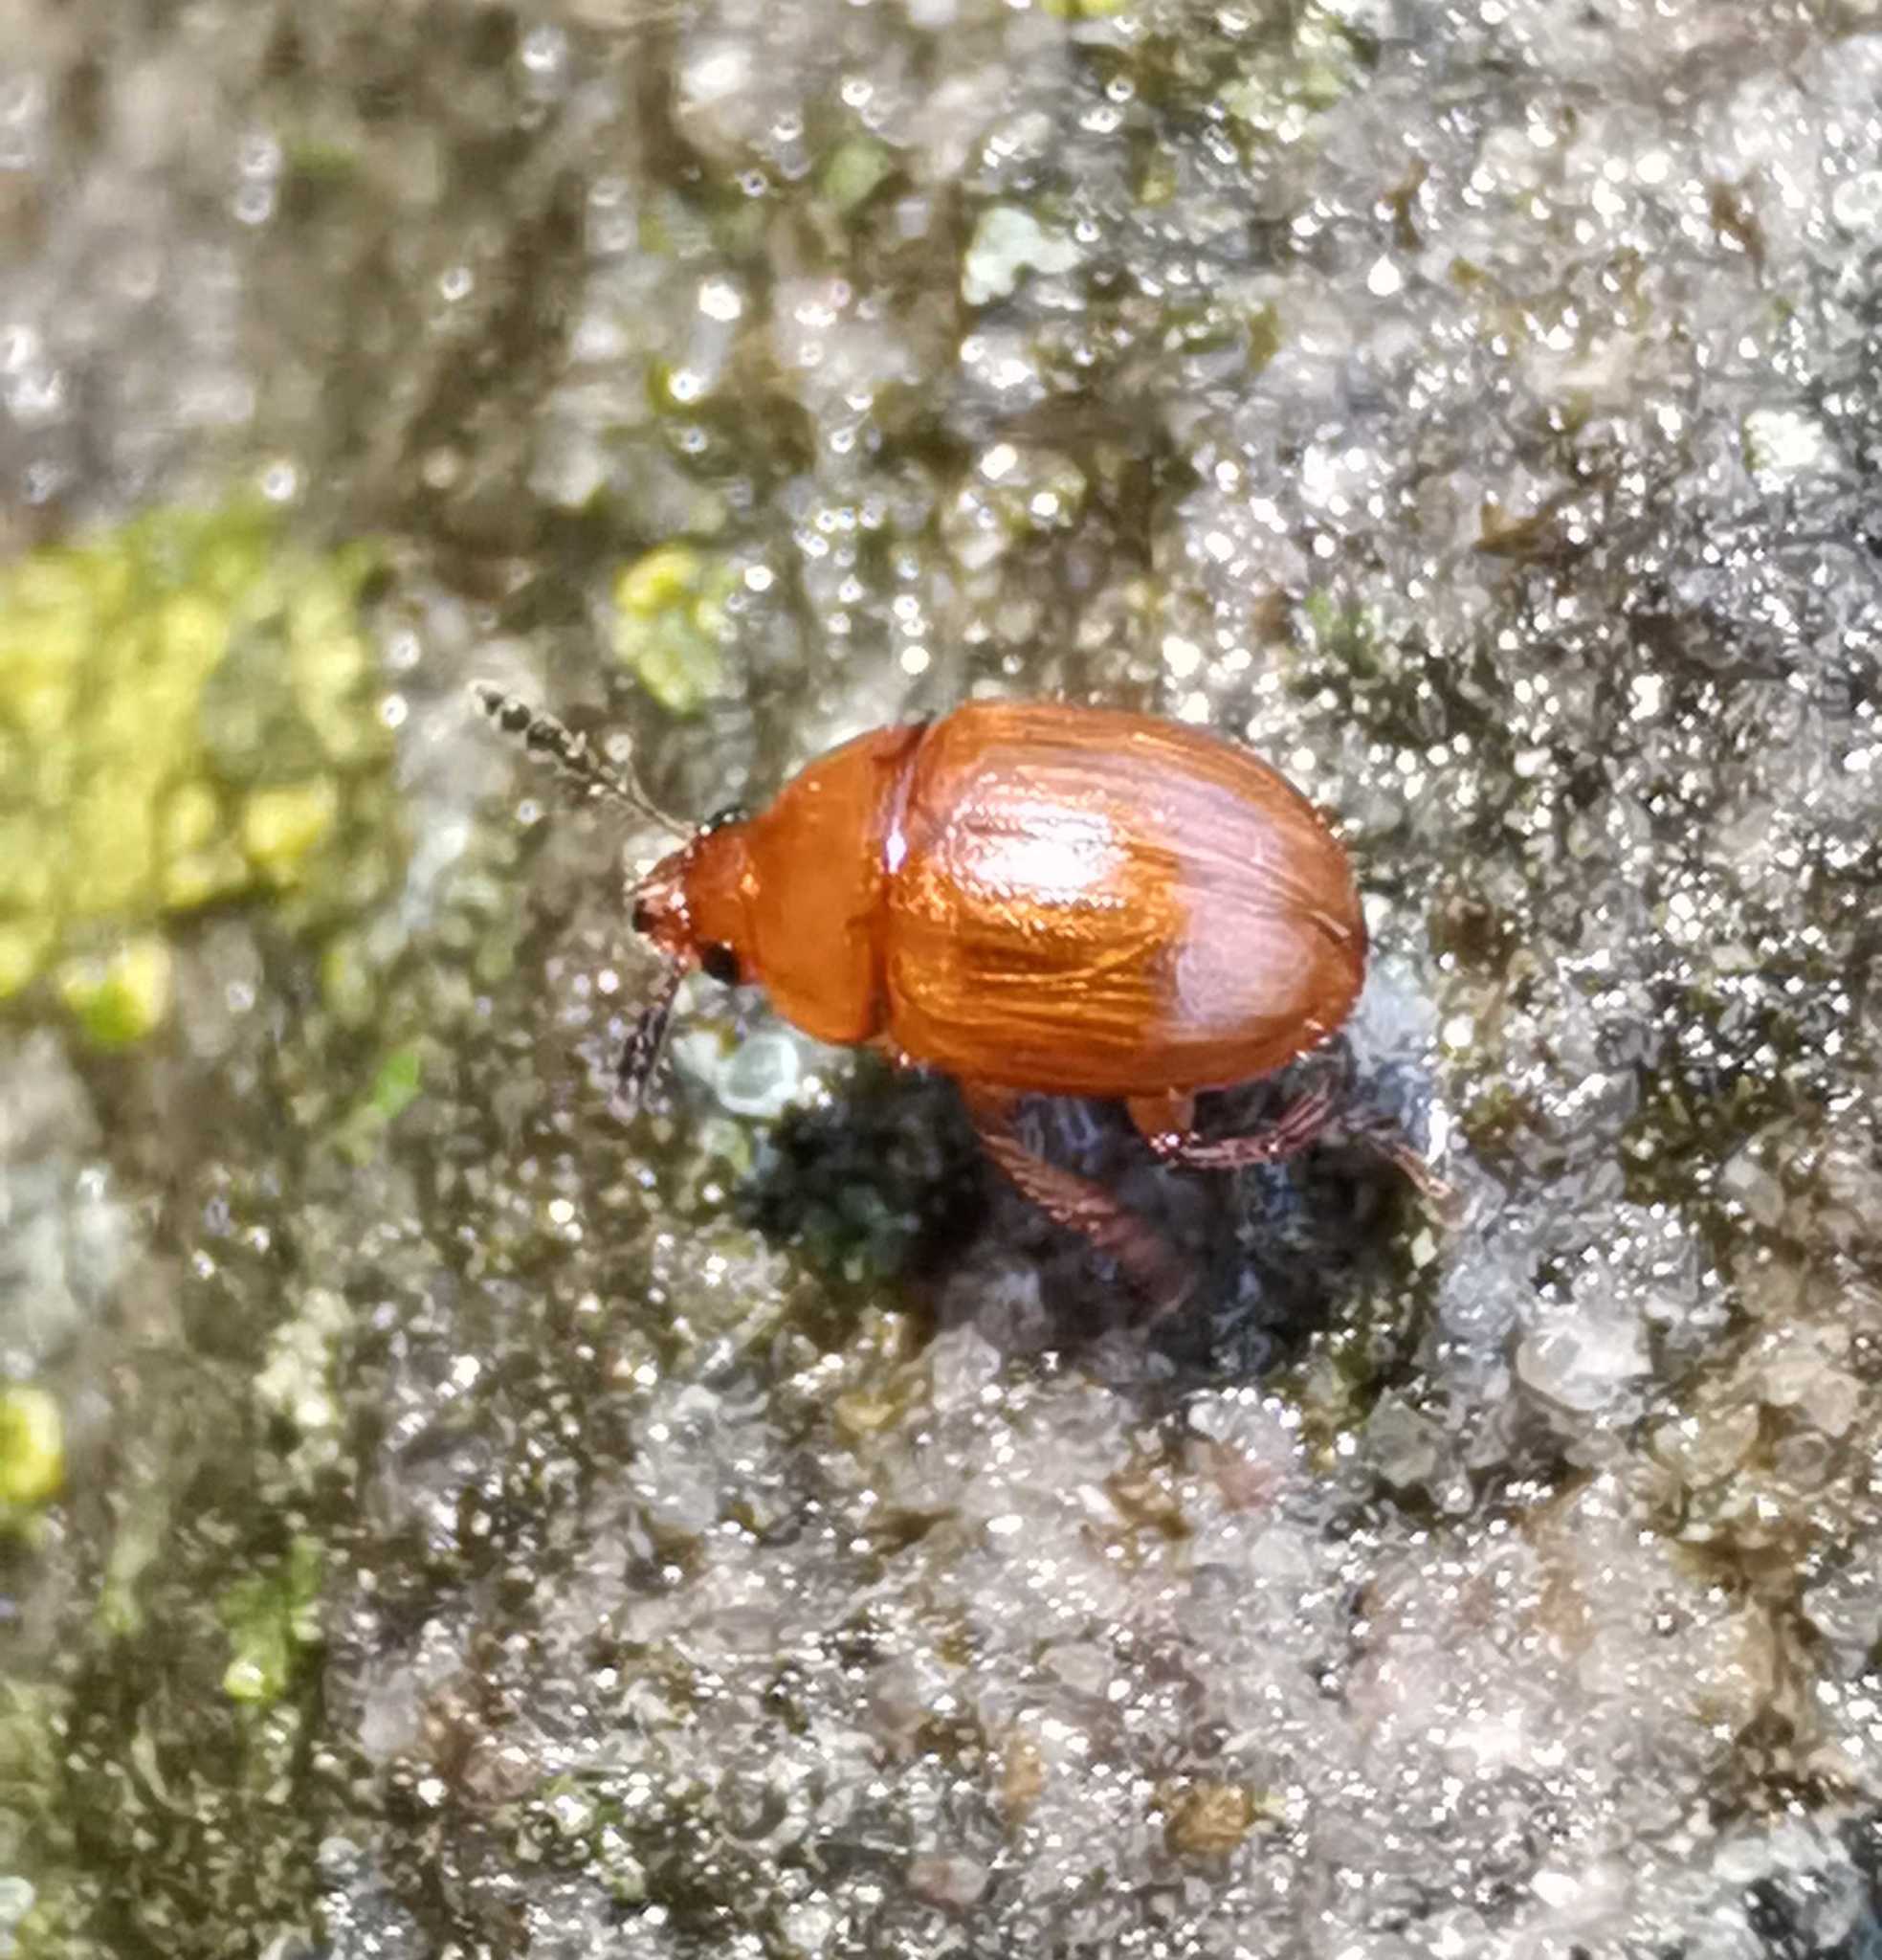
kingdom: Animalia
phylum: Arthropoda
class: Insecta
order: Coleoptera
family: Leiodidae
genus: Leiodes
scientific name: Leiodes
